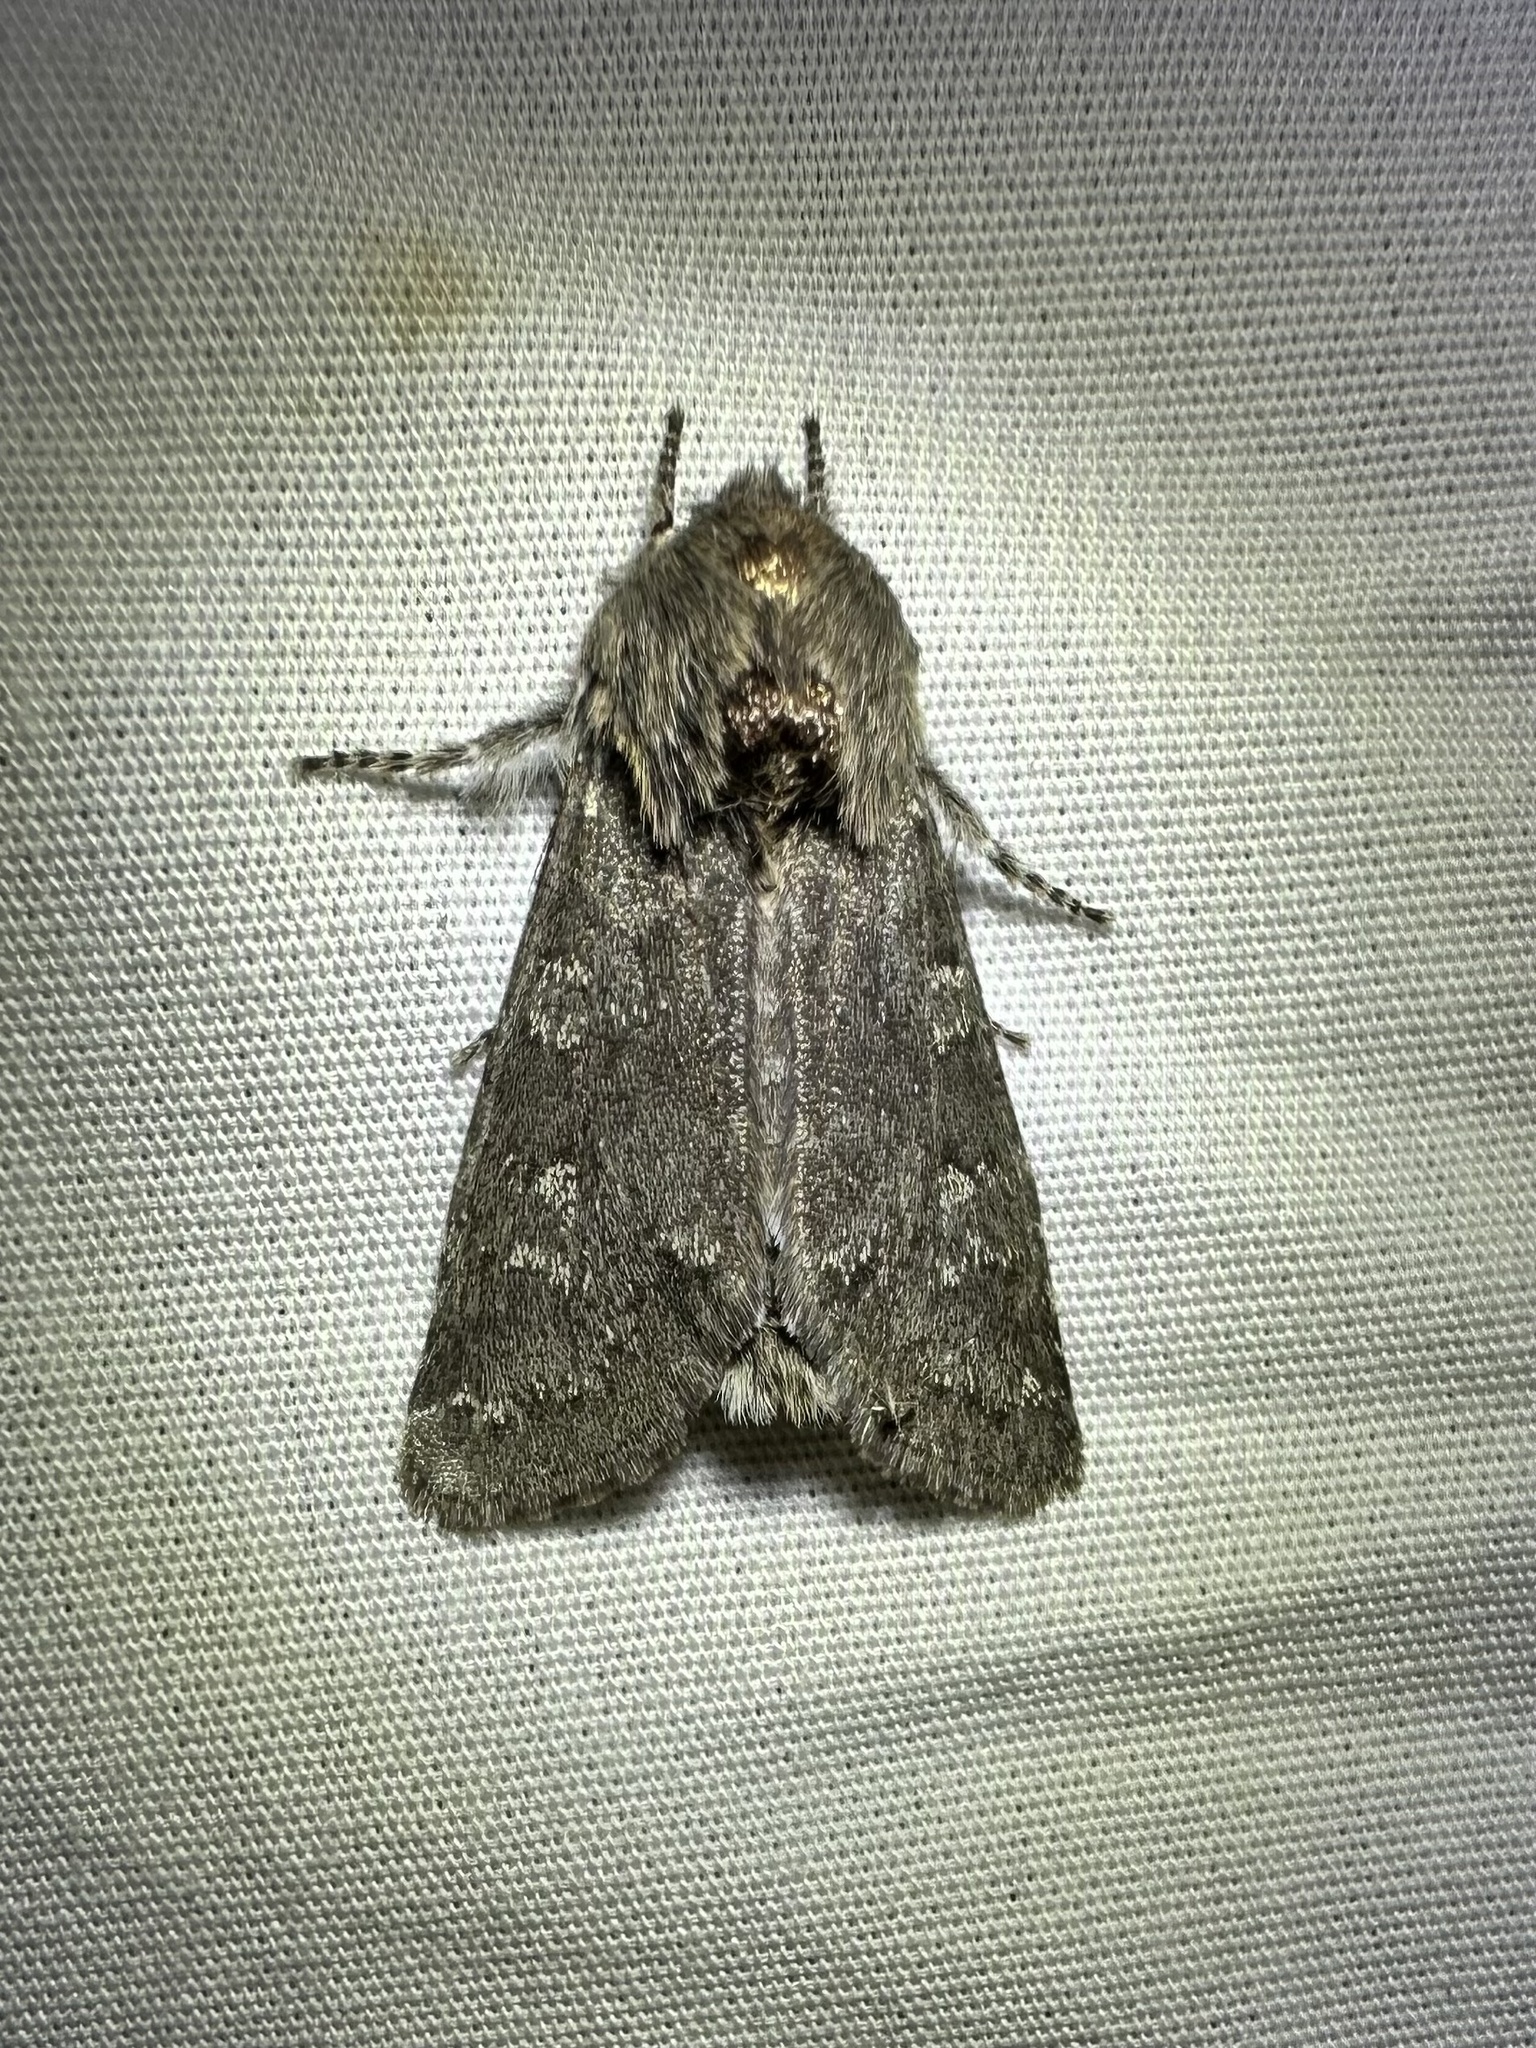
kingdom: Animalia
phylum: Arthropoda
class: Insecta
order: Lepidoptera
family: Noctuidae
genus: Psaphida
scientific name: Psaphida rolandi
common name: Roland's sallow
